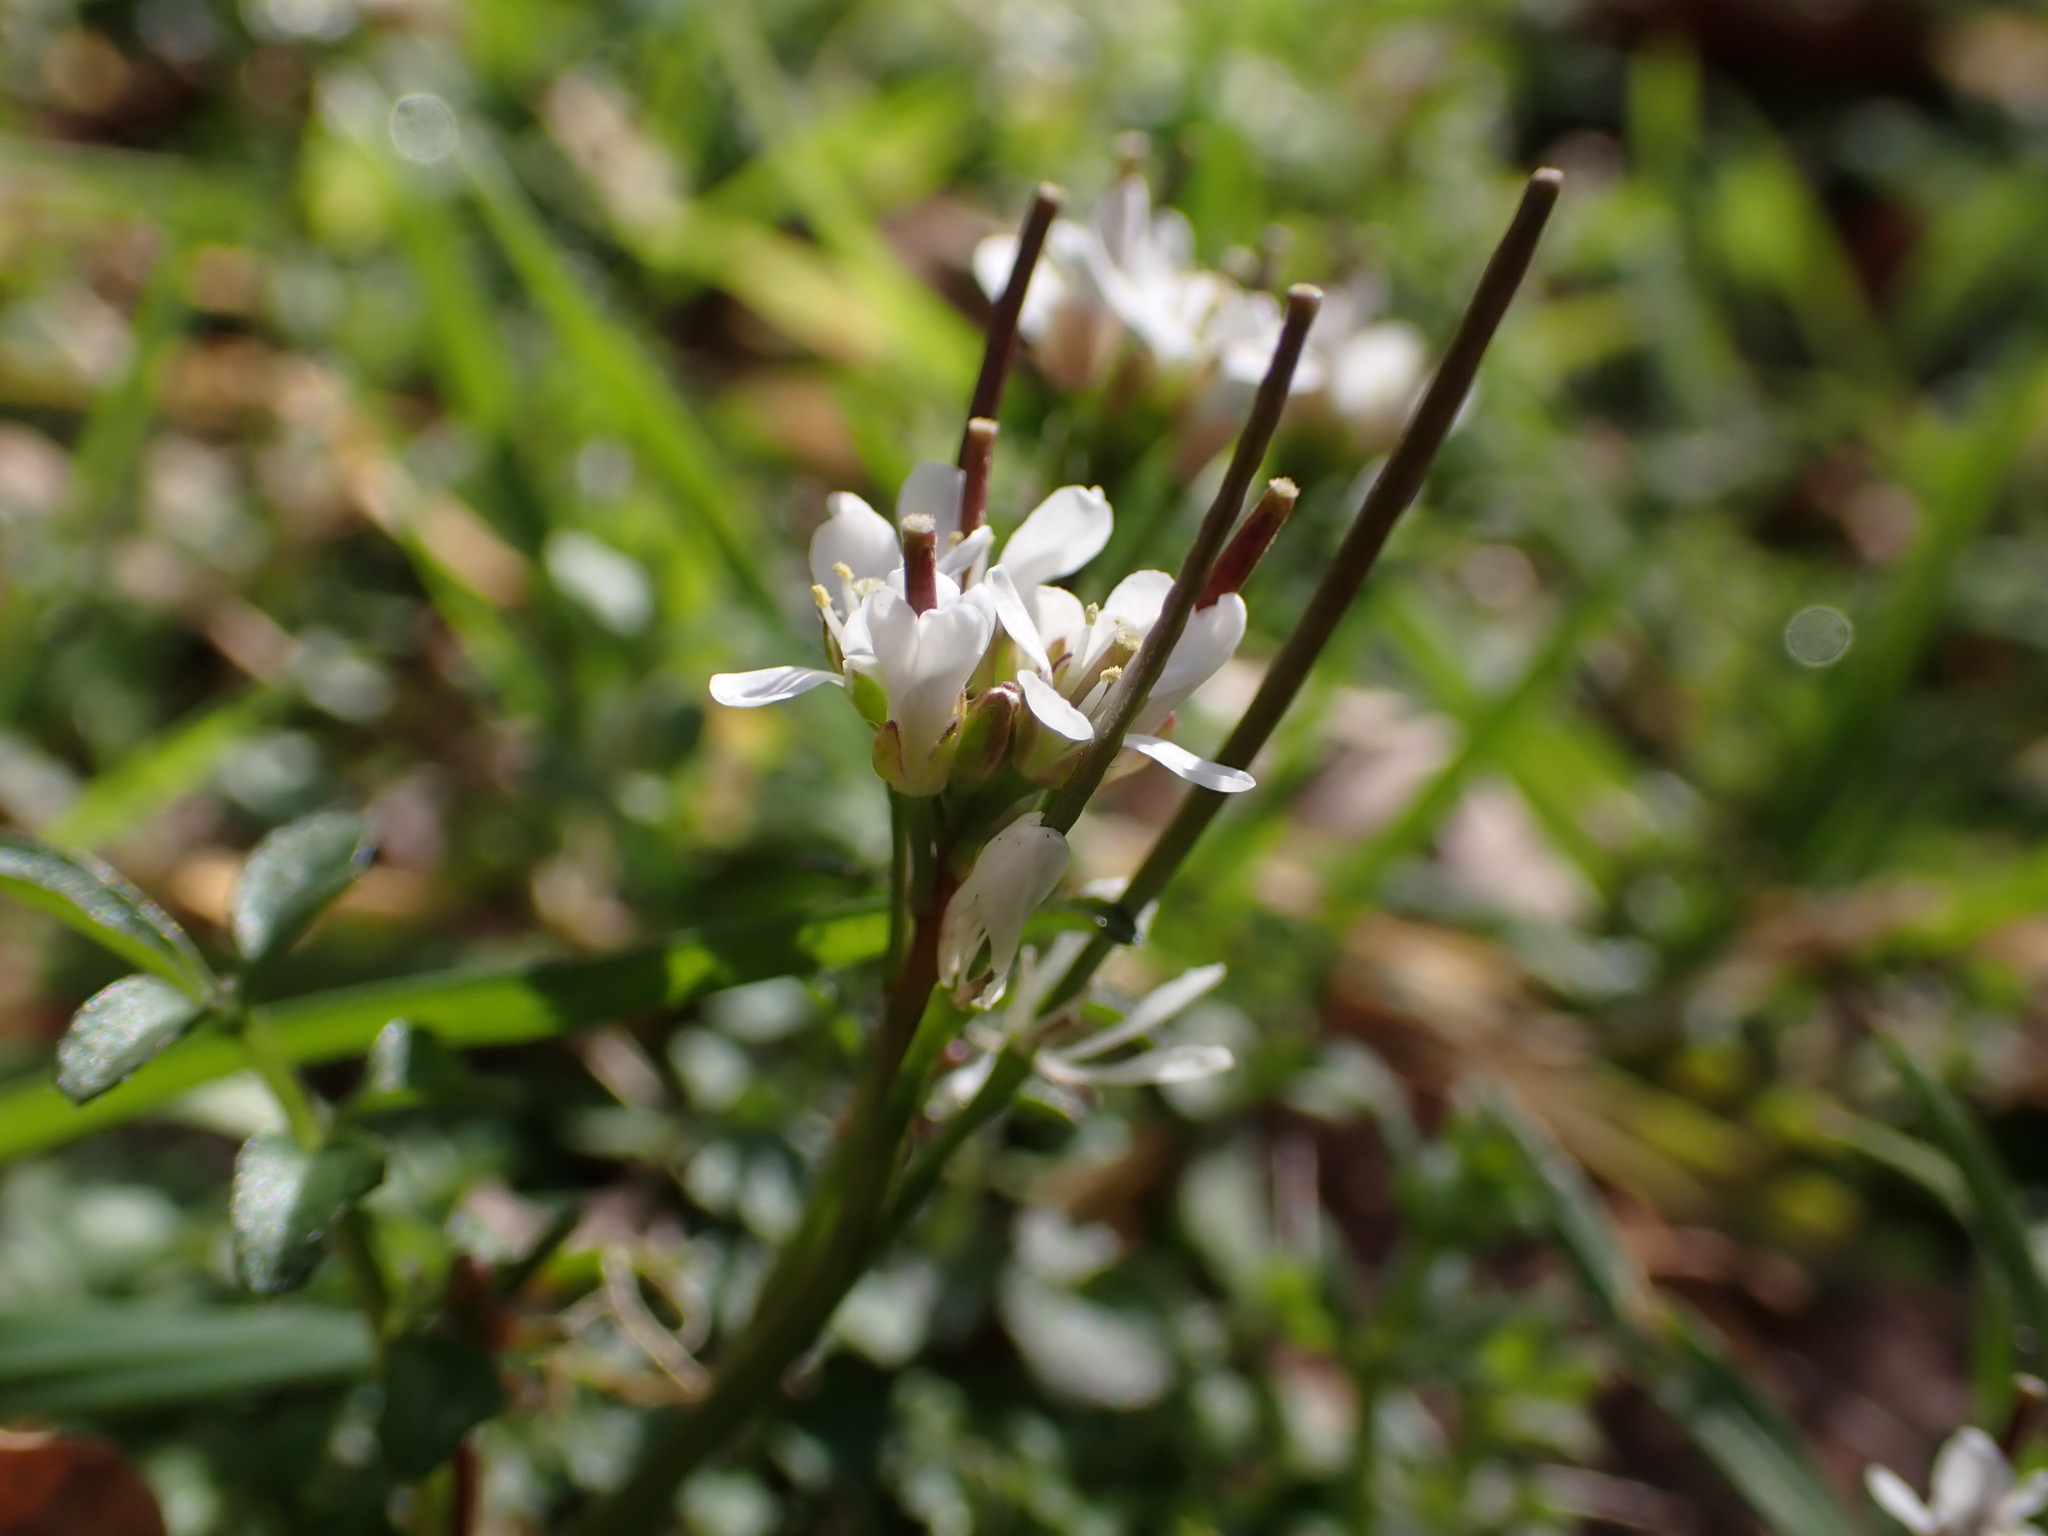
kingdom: Plantae
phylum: Tracheophyta
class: Magnoliopsida
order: Brassicales
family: Brassicaceae
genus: Cardamine
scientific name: Cardamine hirsuta
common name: Hairy bittercress
